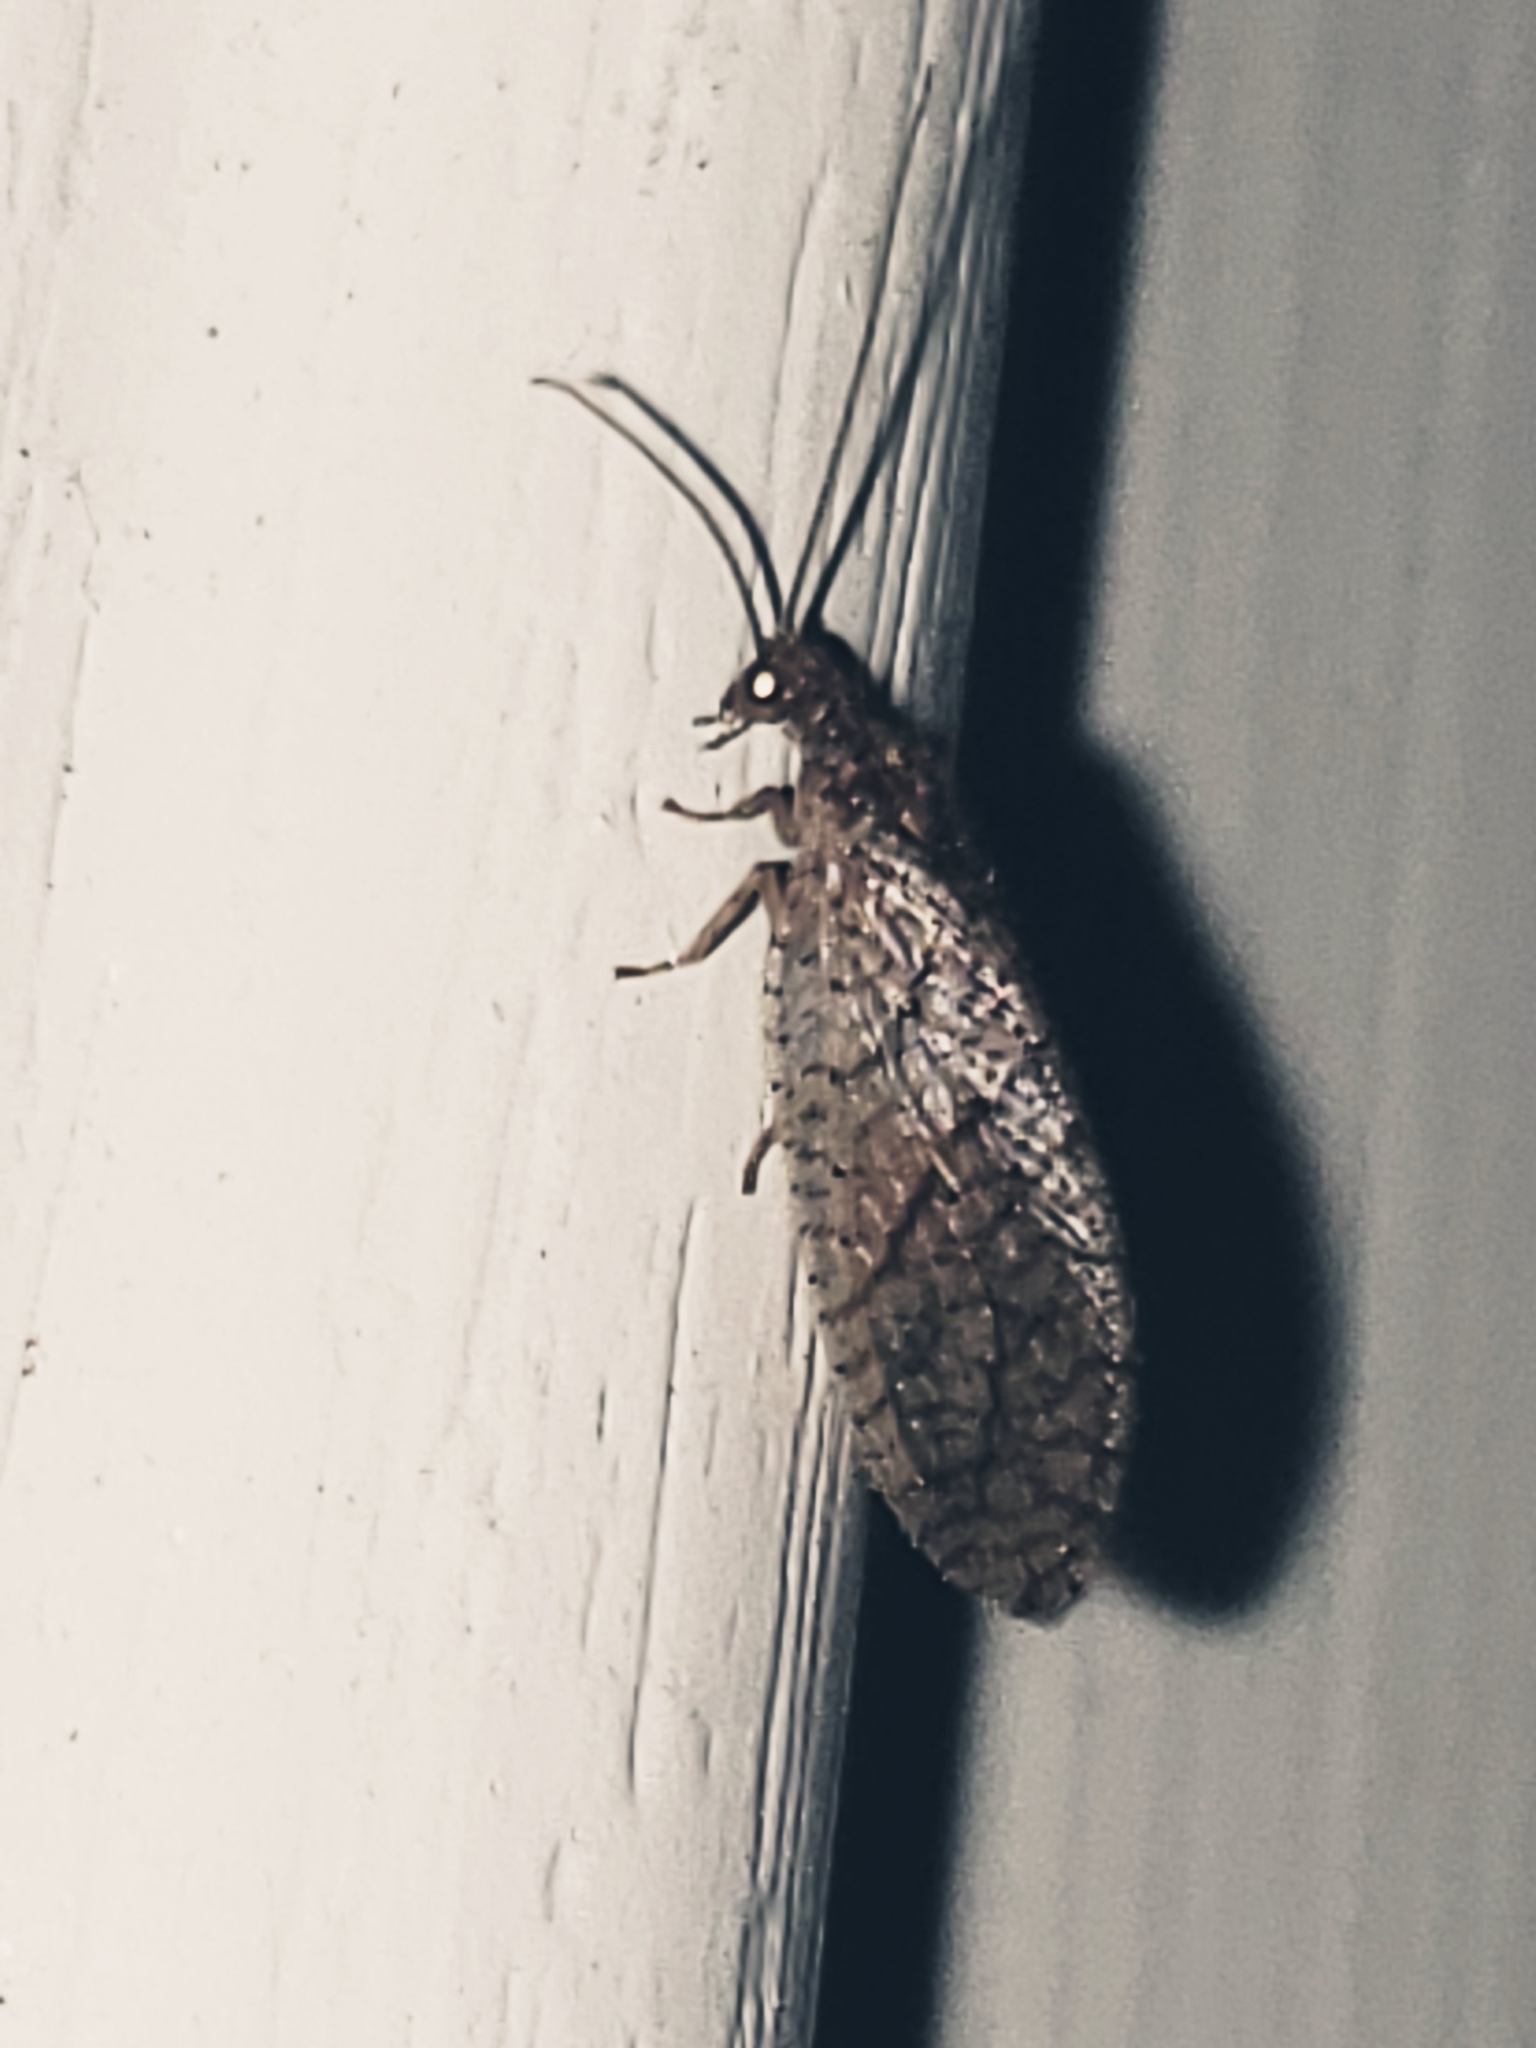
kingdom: Animalia
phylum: Arthropoda
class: Insecta
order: Neuroptera
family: Hemerobiidae
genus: Micromus
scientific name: Micromus posticus
